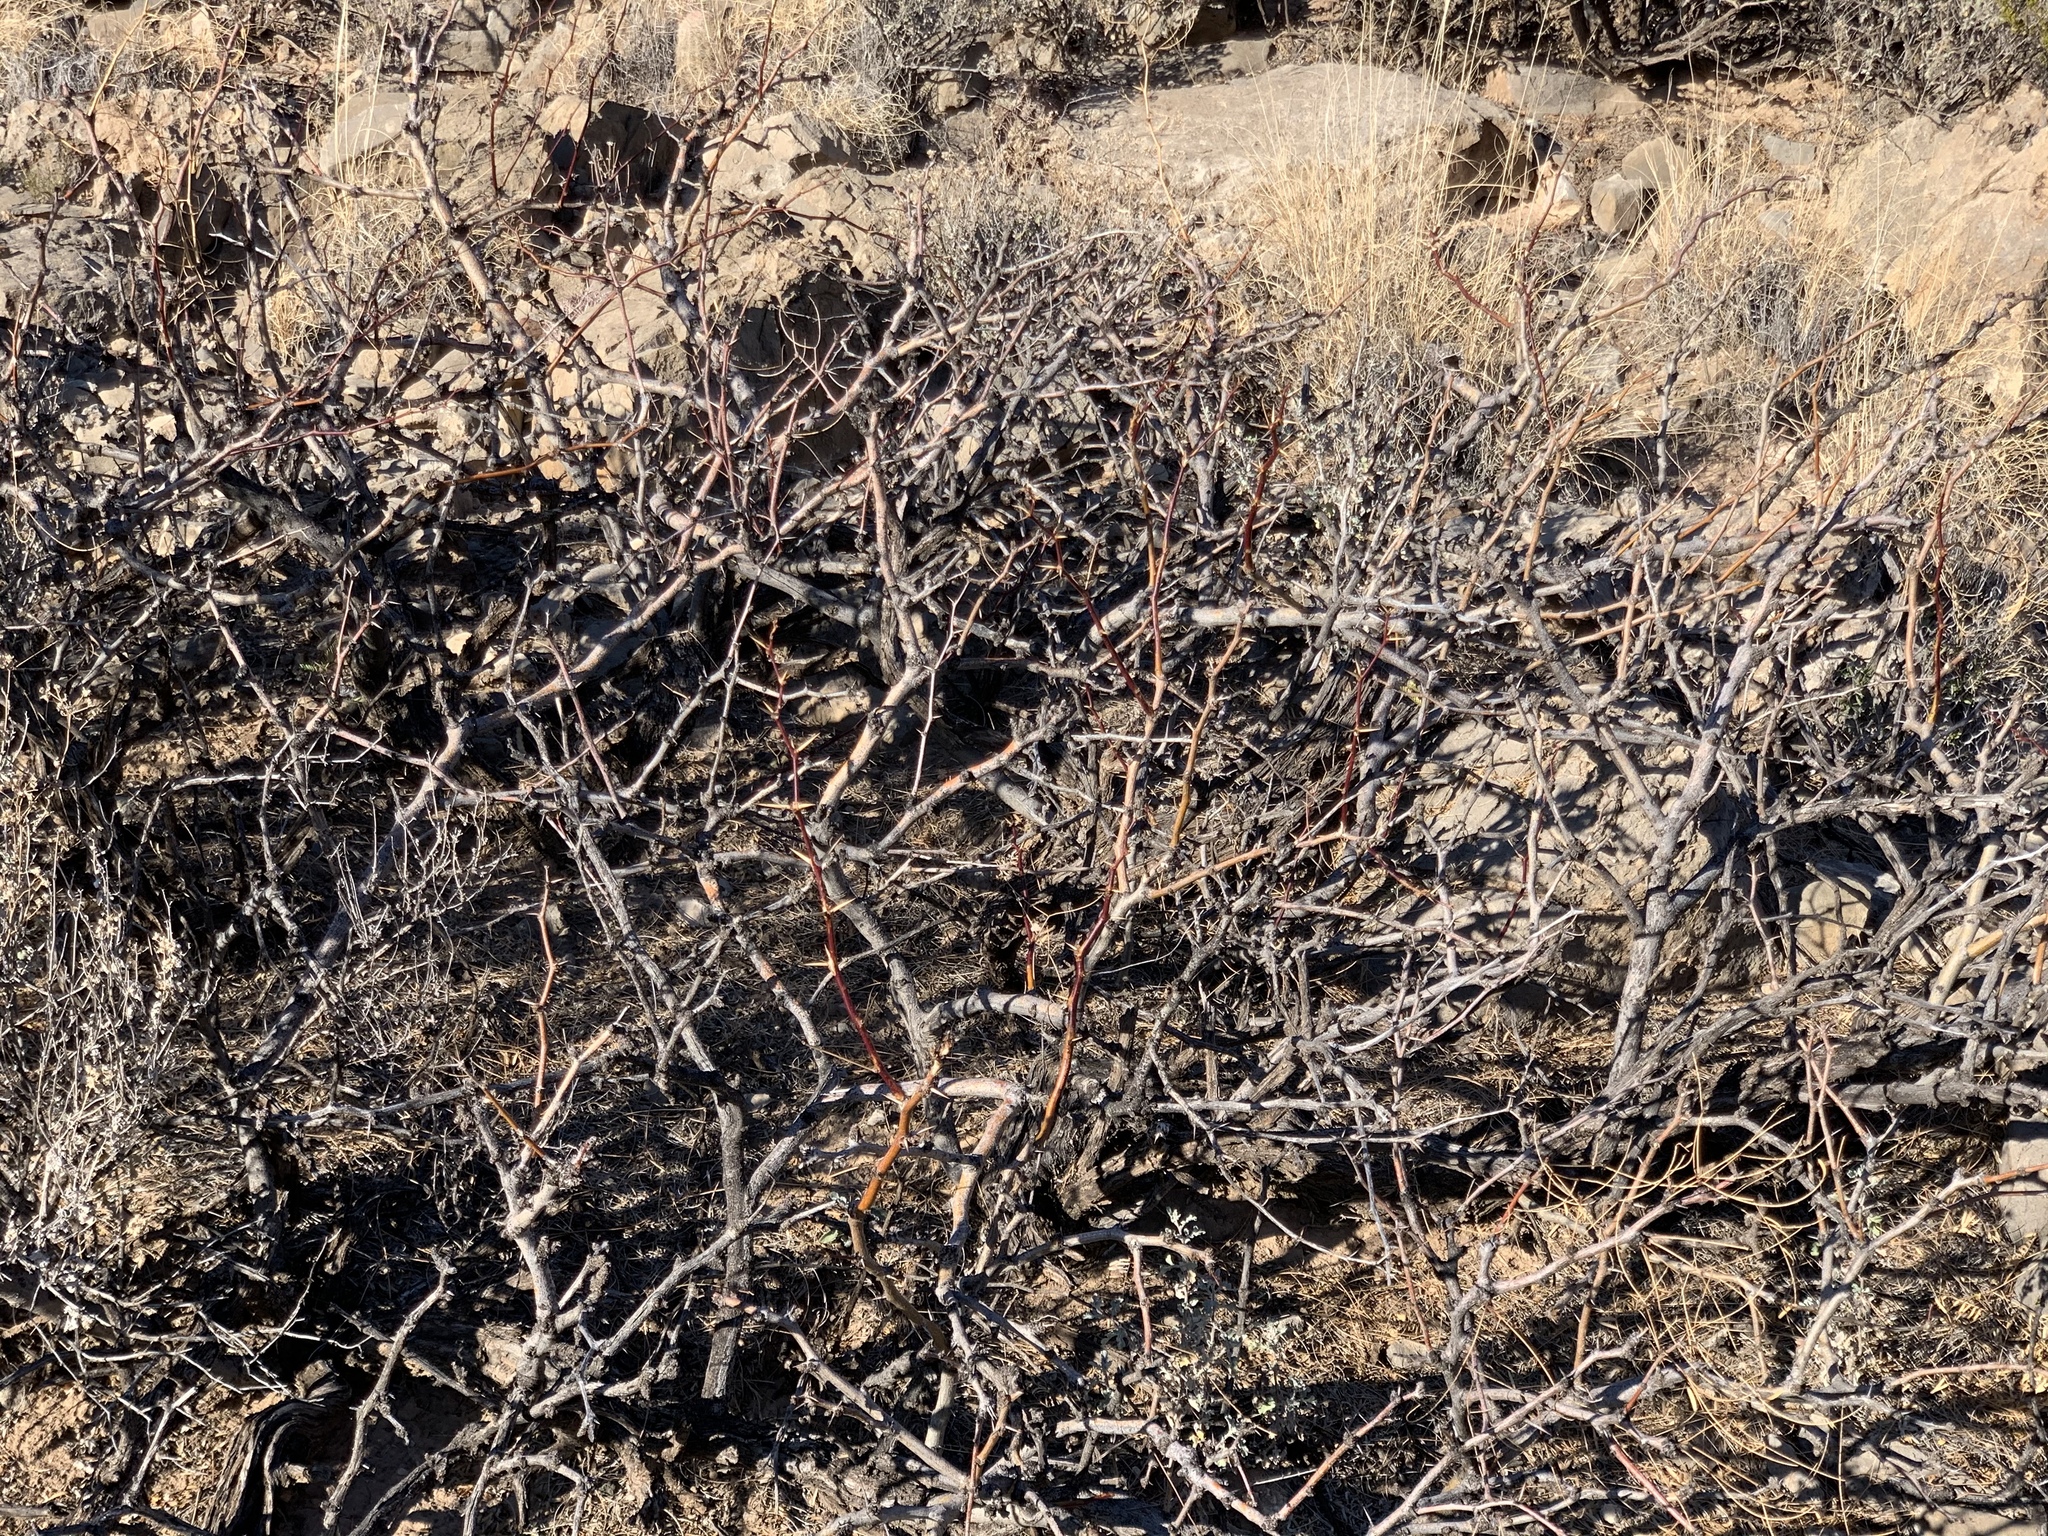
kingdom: Plantae
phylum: Tracheophyta
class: Magnoliopsida
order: Fabales
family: Fabaceae
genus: Prosopis
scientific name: Prosopis glandulosa
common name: Honey mesquite
